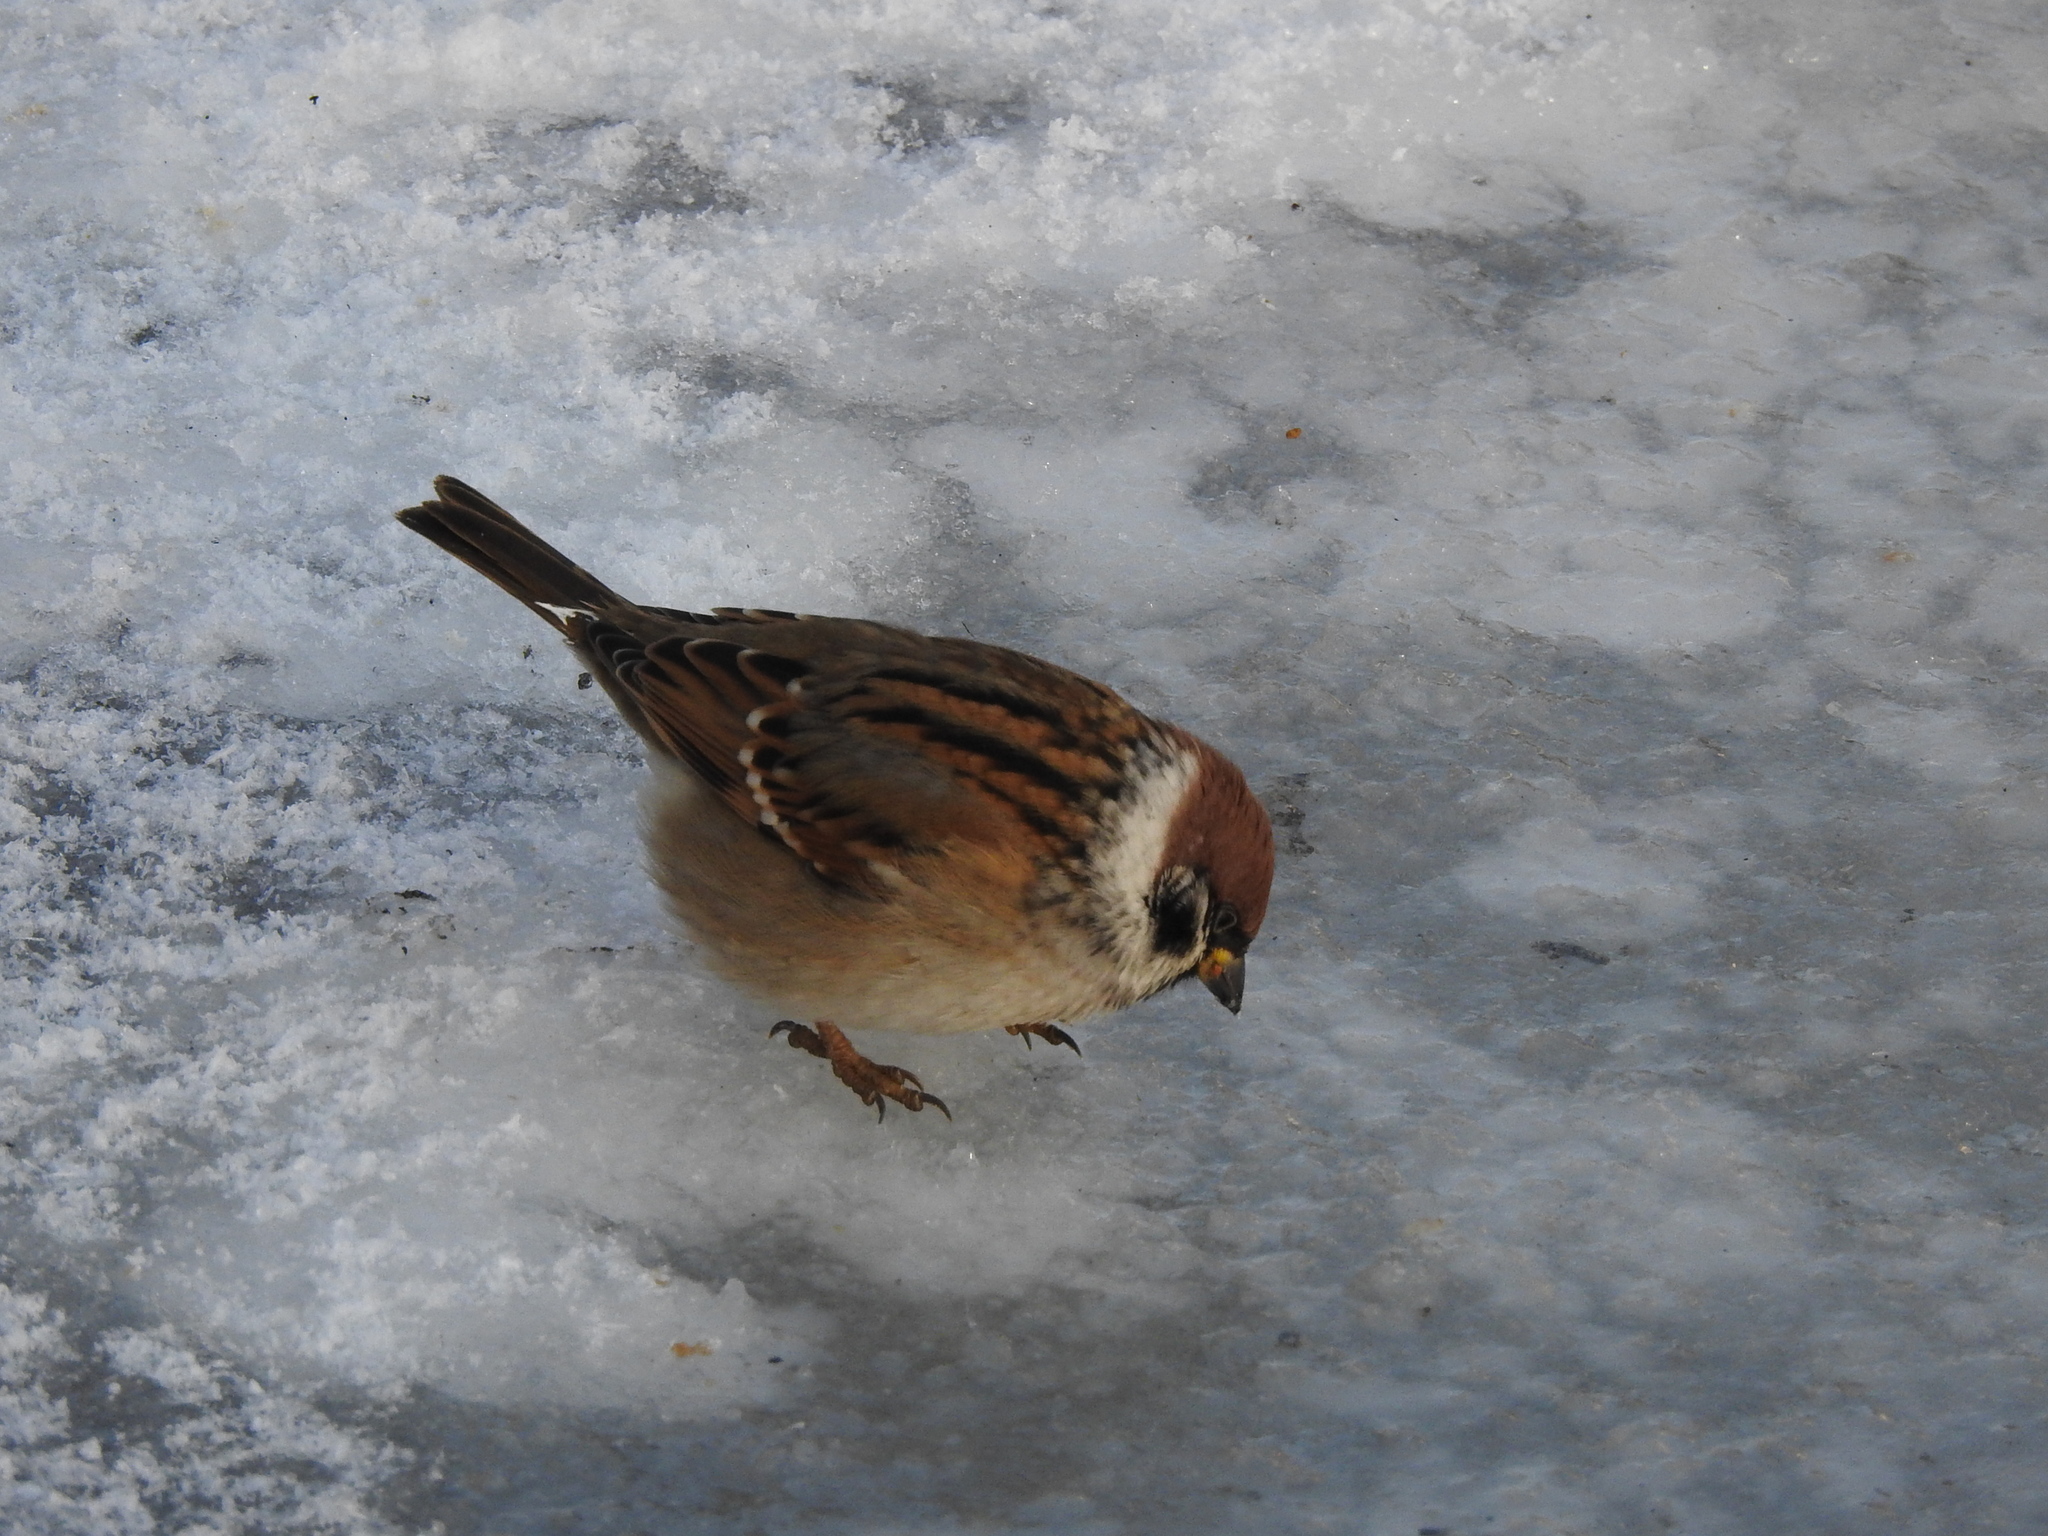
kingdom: Animalia
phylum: Chordata
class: Aves
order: Passeriformes
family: Passeridae
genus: Passer
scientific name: Passer montanus
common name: Eurasian tree sparrow
